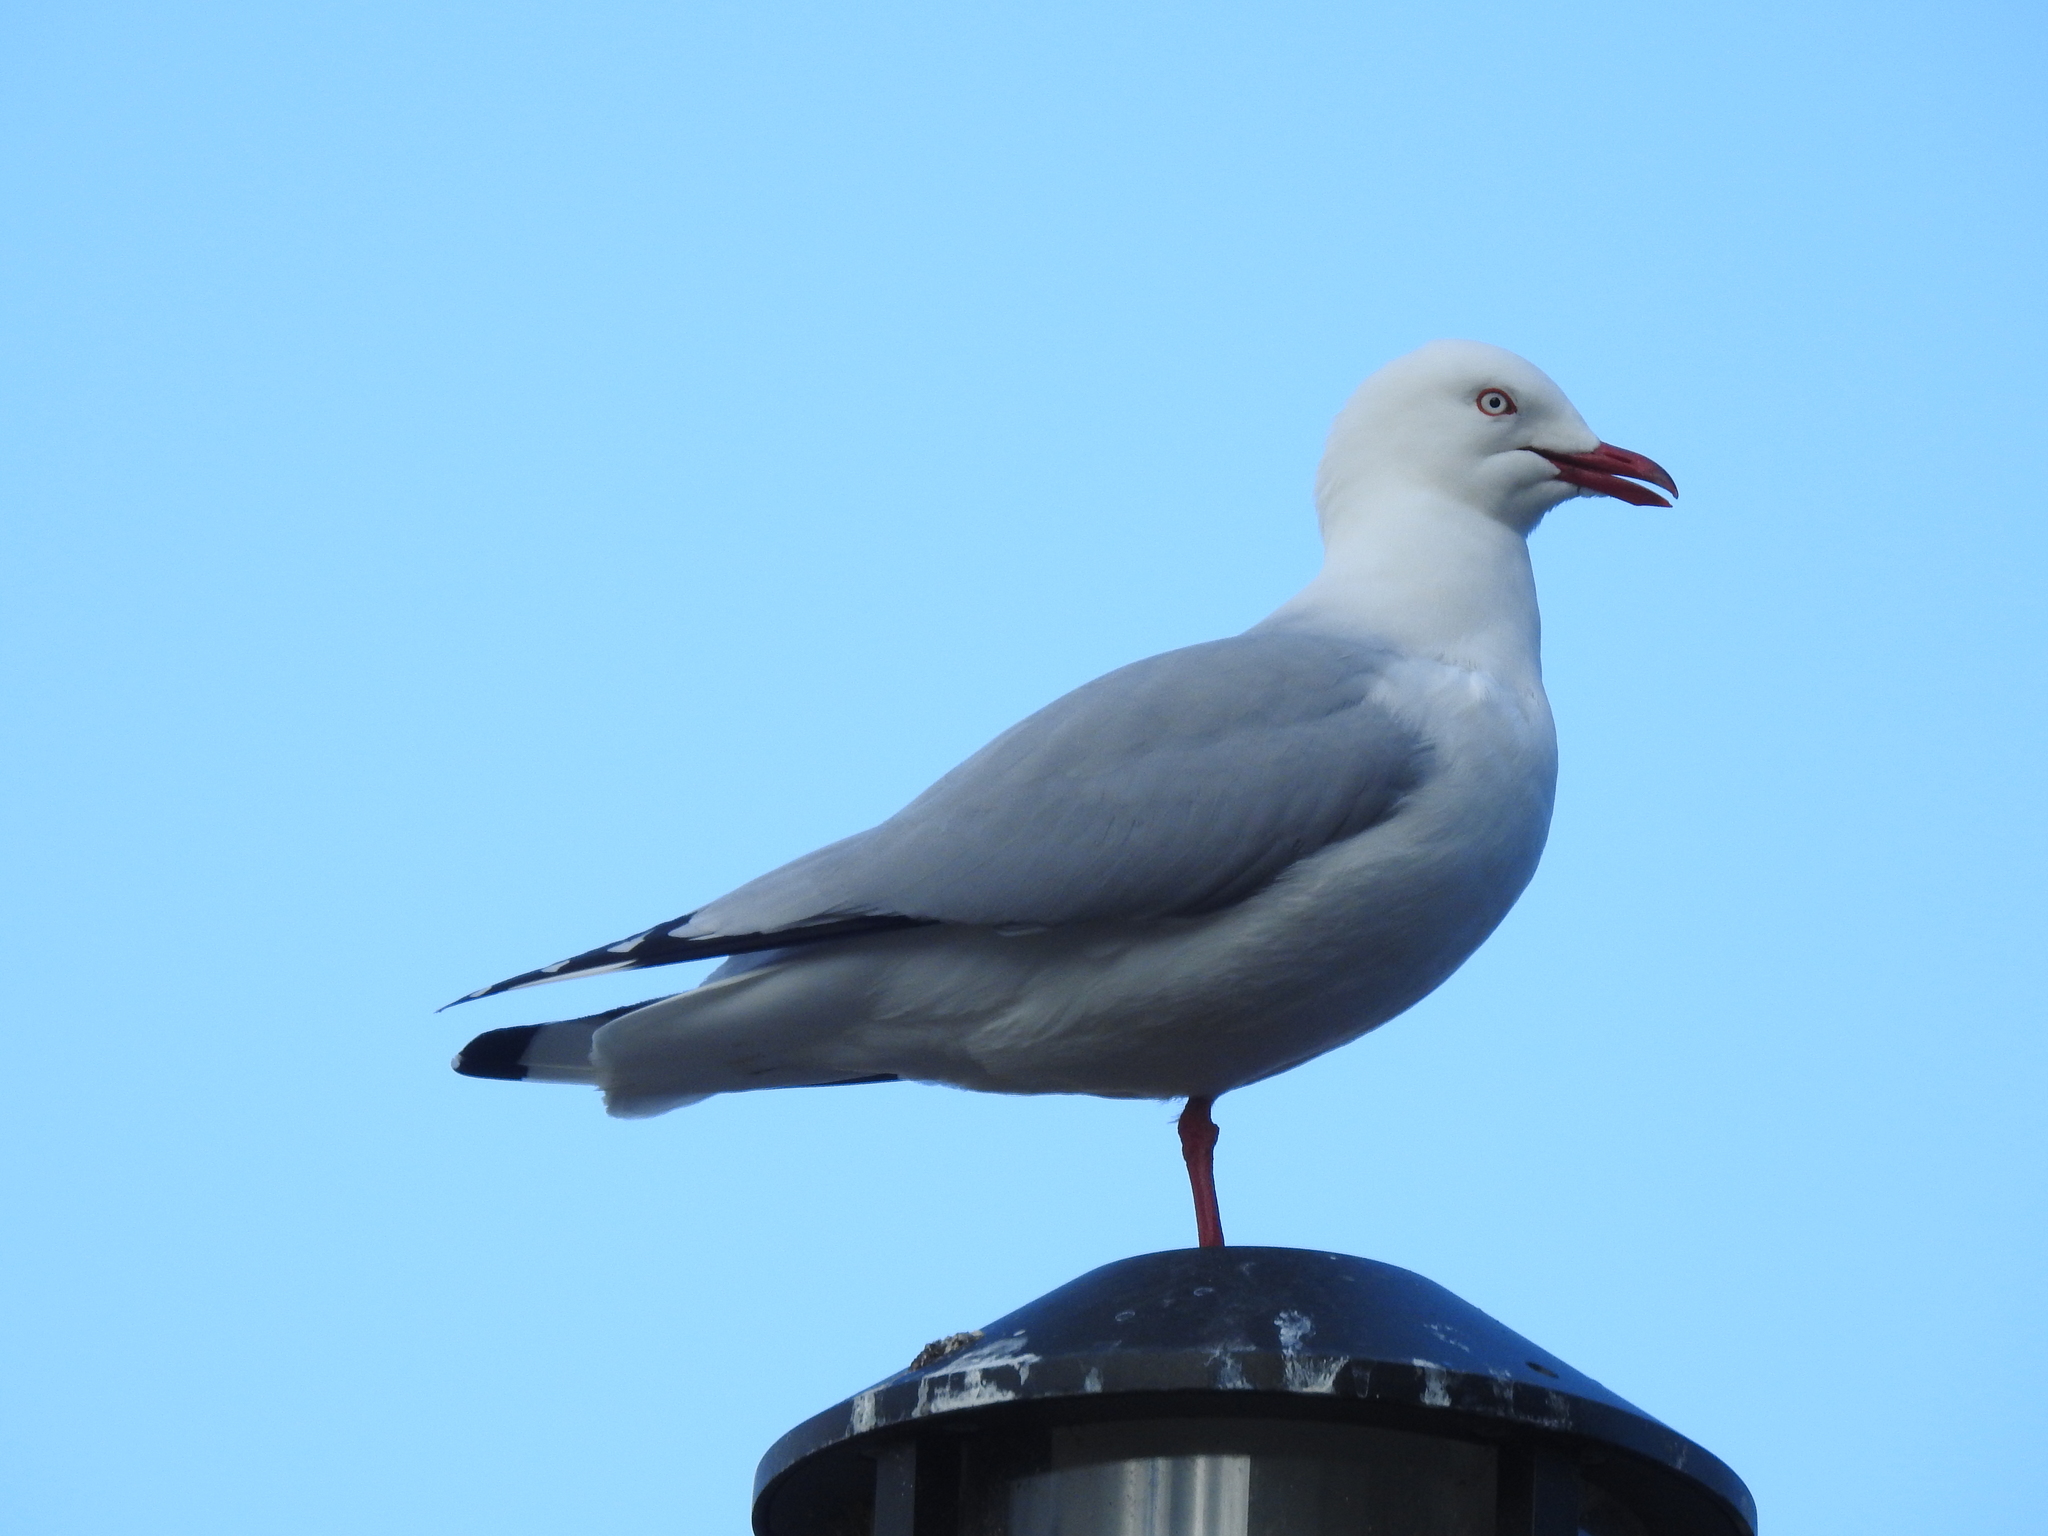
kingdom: Animalia
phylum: Chordata
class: Aves
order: Charadriiformes
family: Laridae
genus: Chroicocephalus
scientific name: Chroicocephalus novaehollandiae
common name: Silver gull
